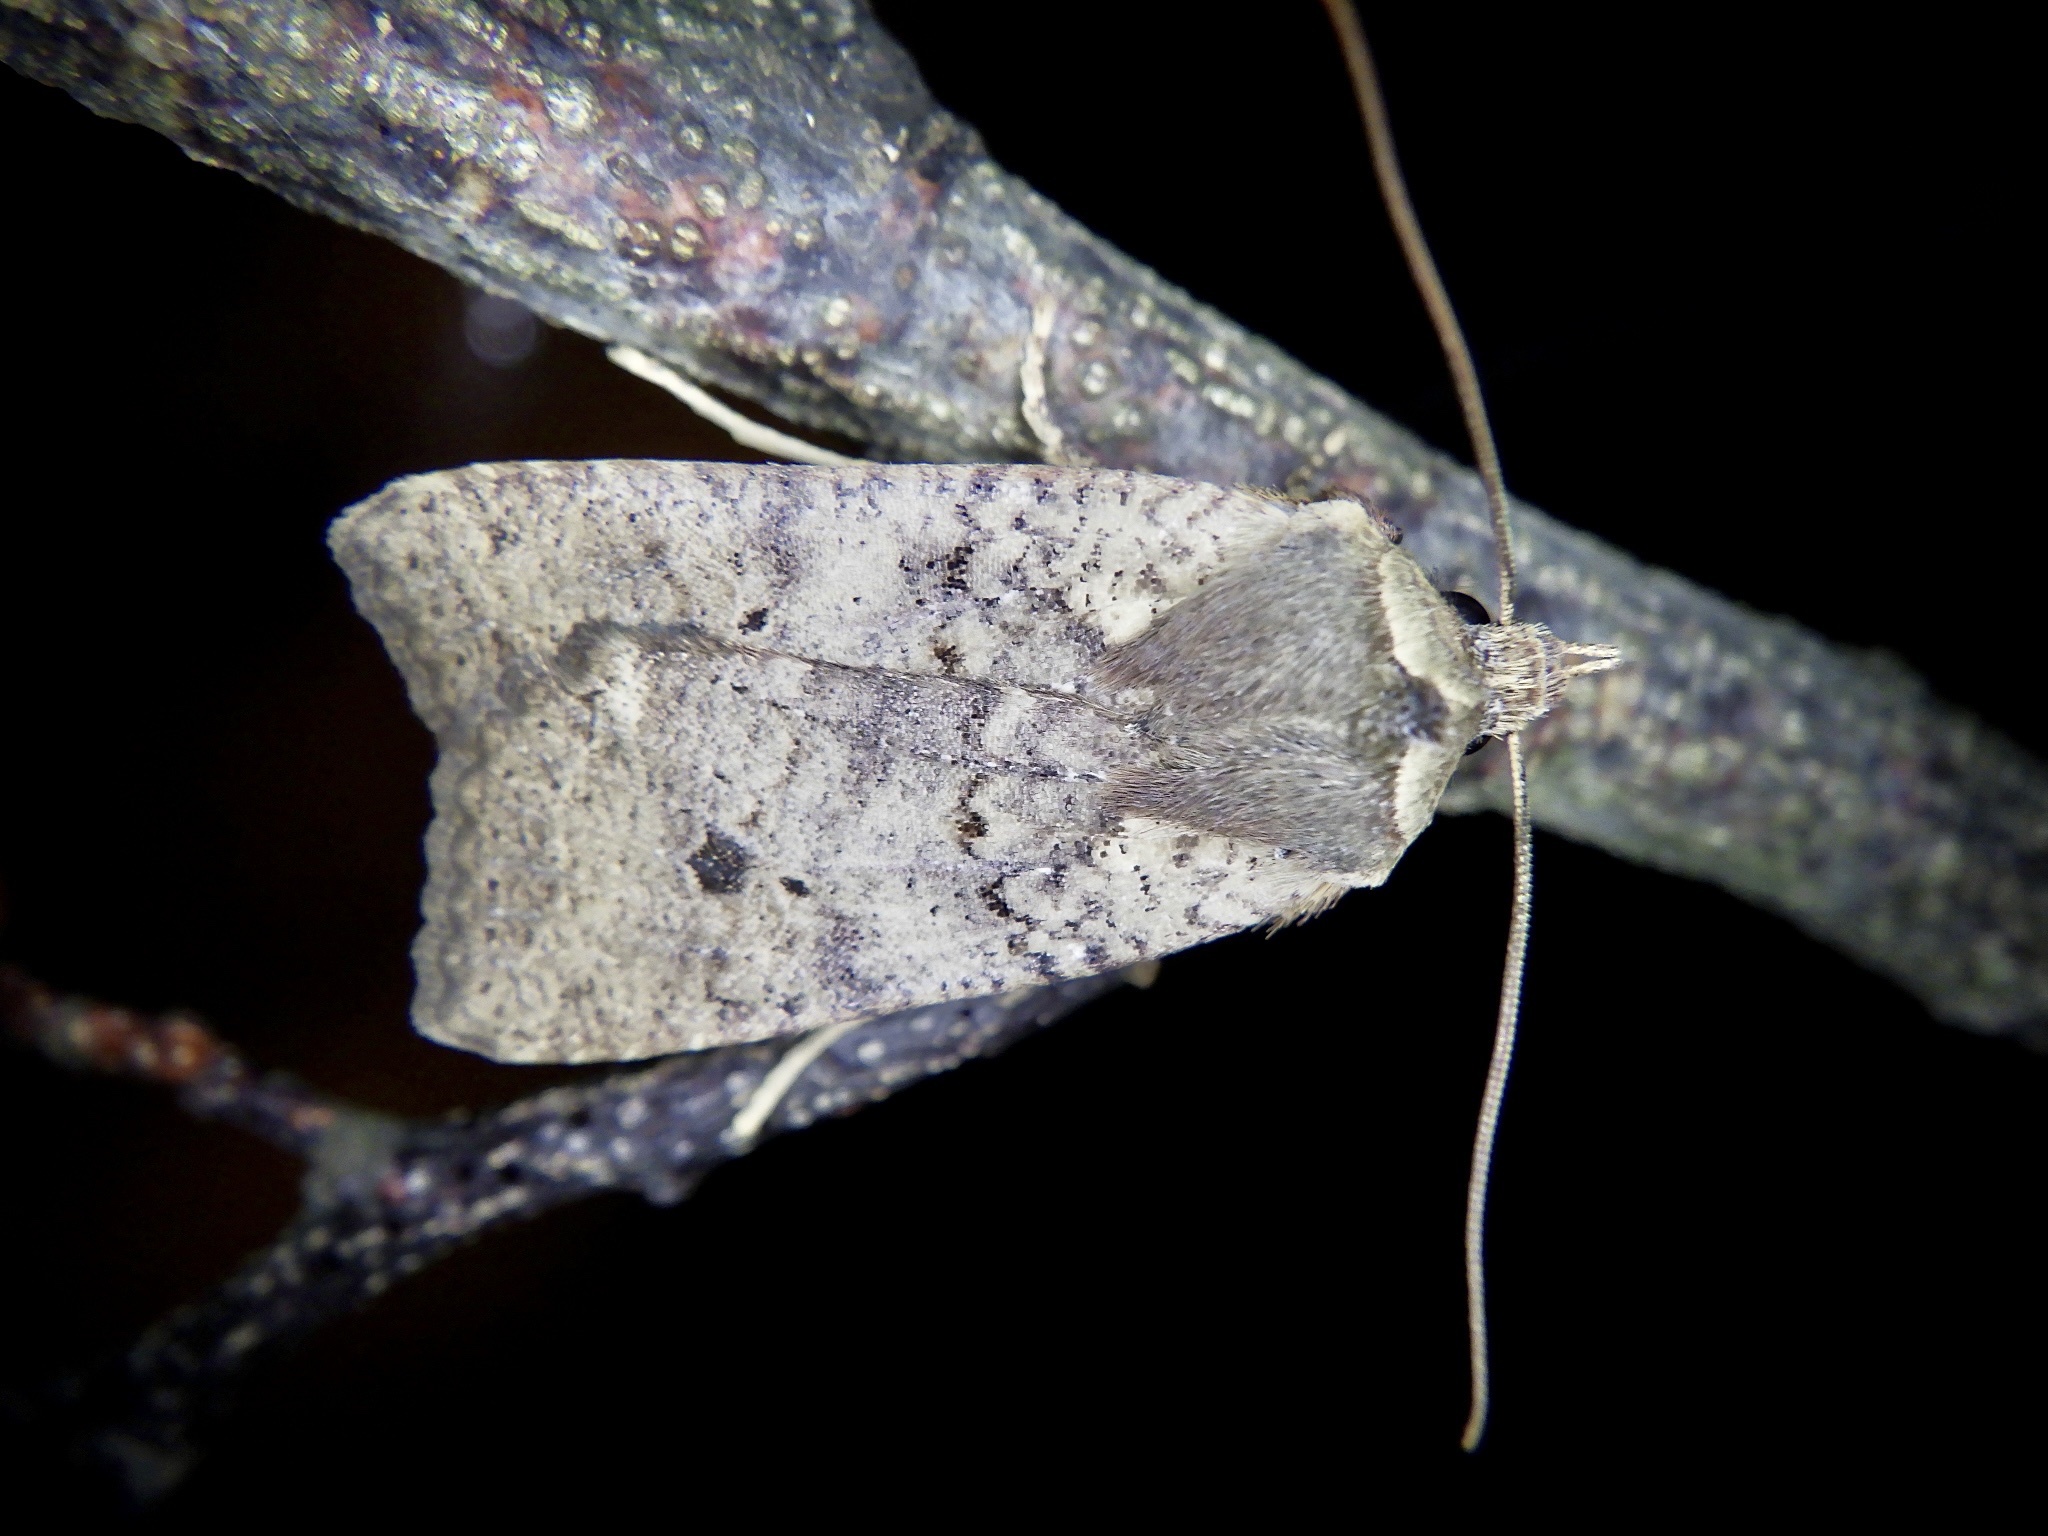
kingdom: Animalia
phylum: Arthropoda
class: Insecta
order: Lepidoptera
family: Noctuidae
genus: Rhynchaglaea
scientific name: Rhynchaglaea fuscipennis
